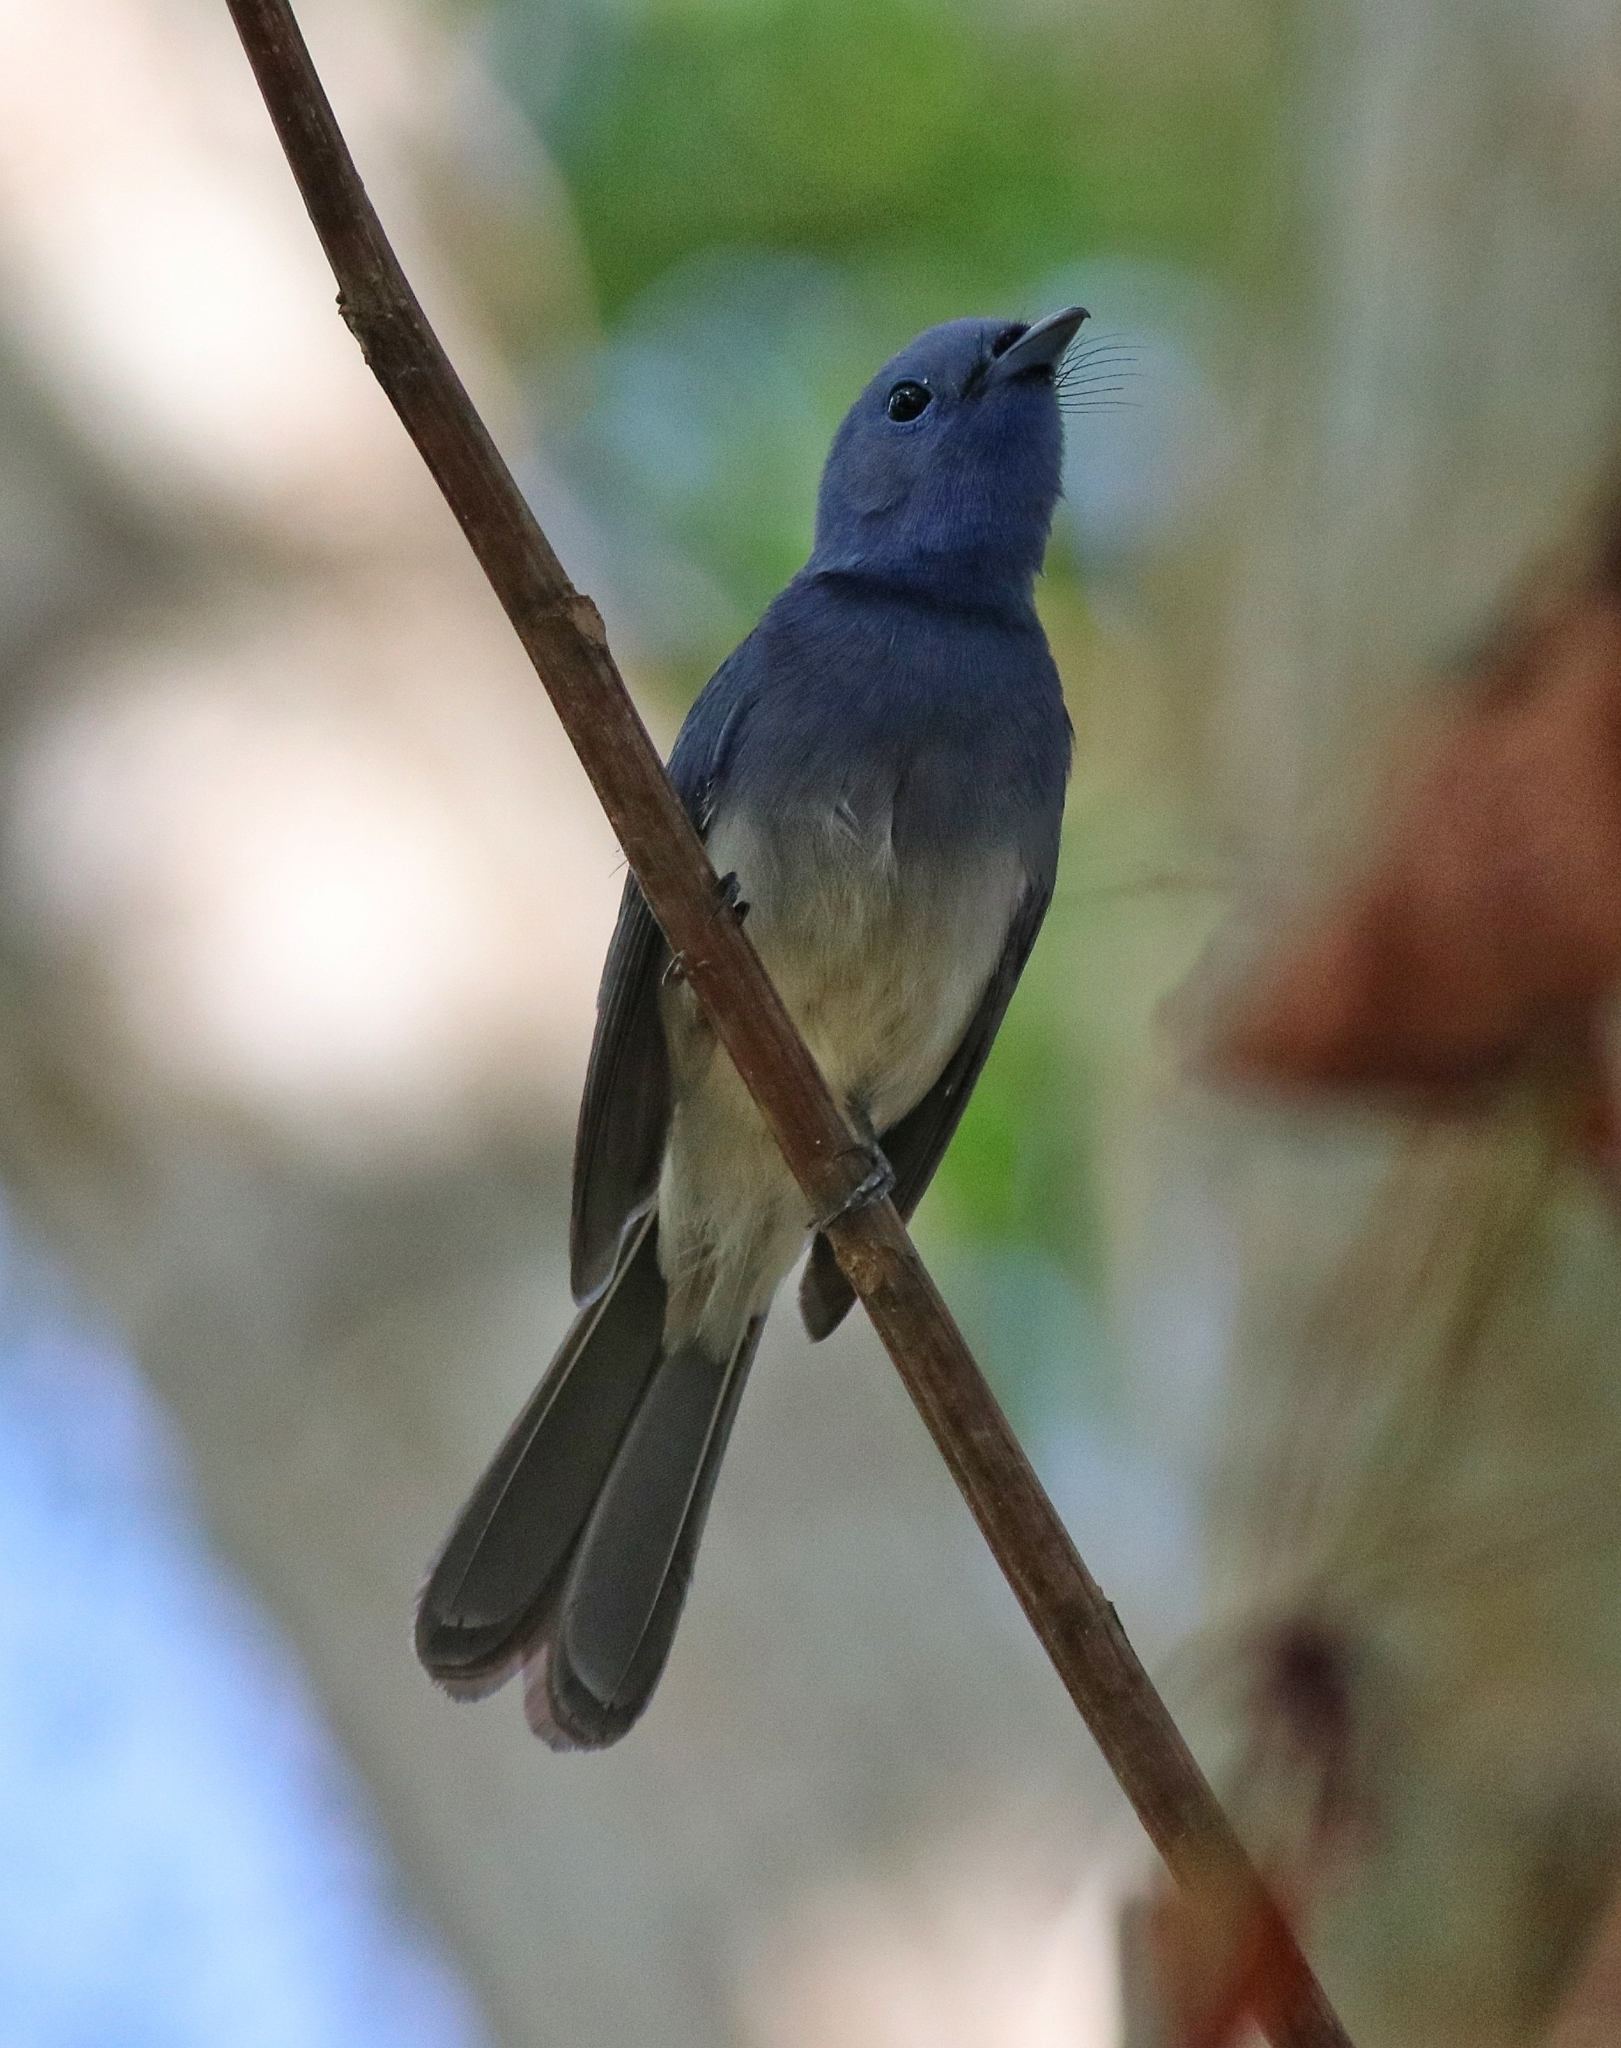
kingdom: Animalia
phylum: Chordata
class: Aves
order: Passeriformes
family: Monarchidae
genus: Hypothymis
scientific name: Hypothymis azurea
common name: Black-naped monarch
